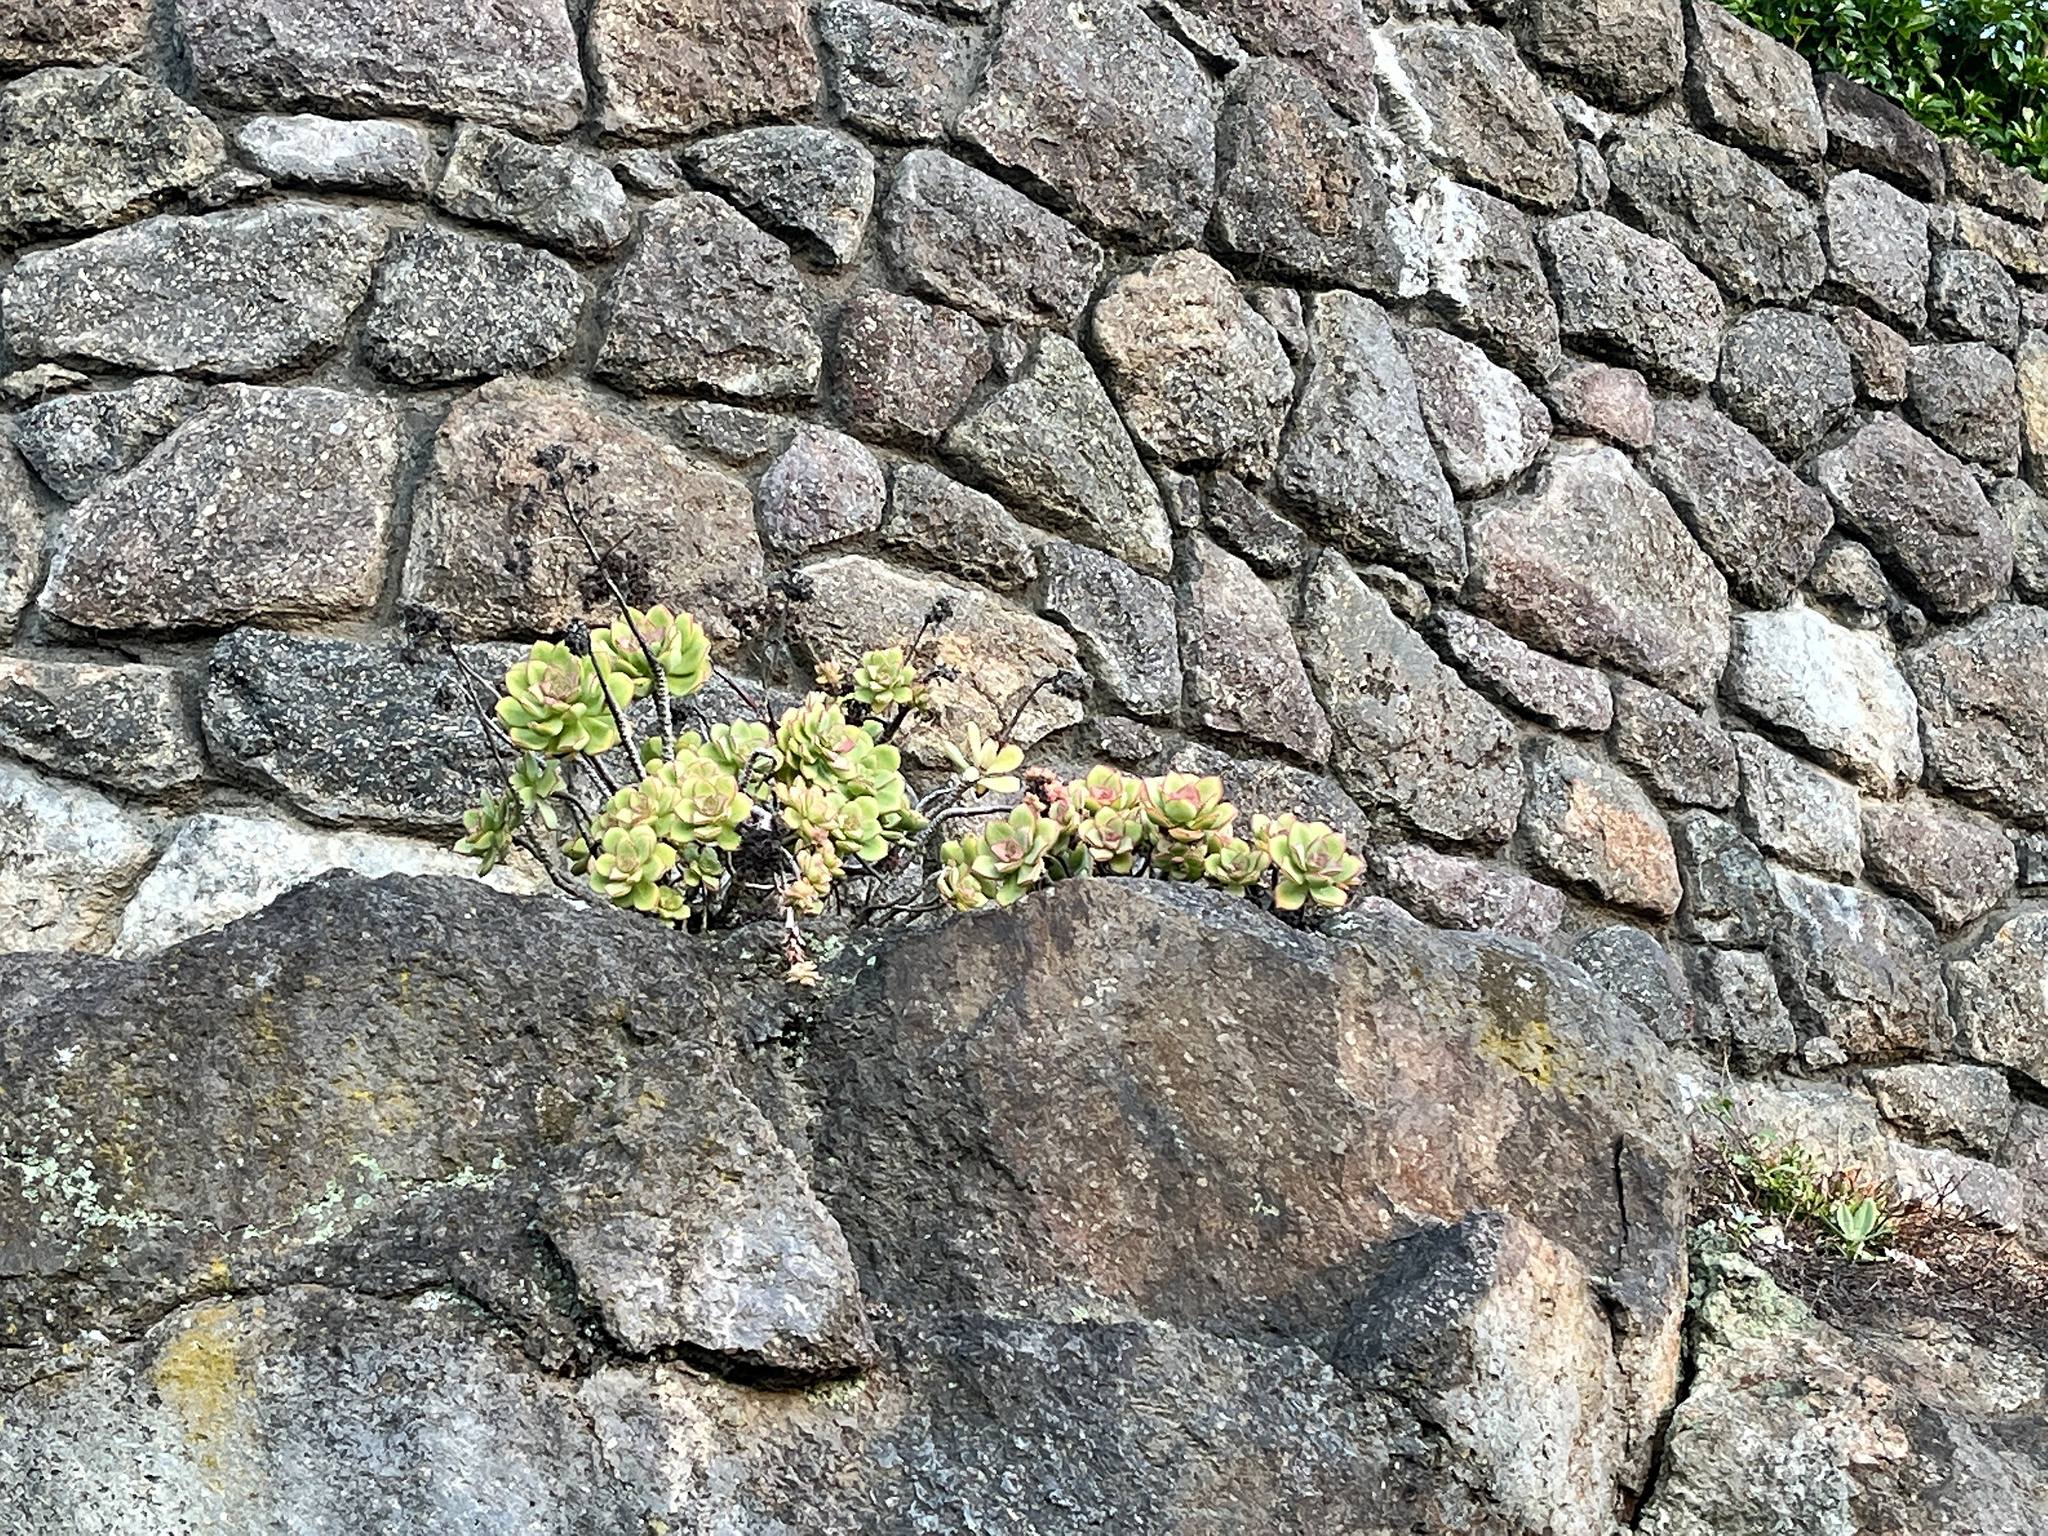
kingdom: Plantae
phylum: Tracheophyta
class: Magnoliopsida
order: Saxifragales
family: Crassulaceae
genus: Aeonium
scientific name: Aeonium haworthii
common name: Haworth's aeonium
